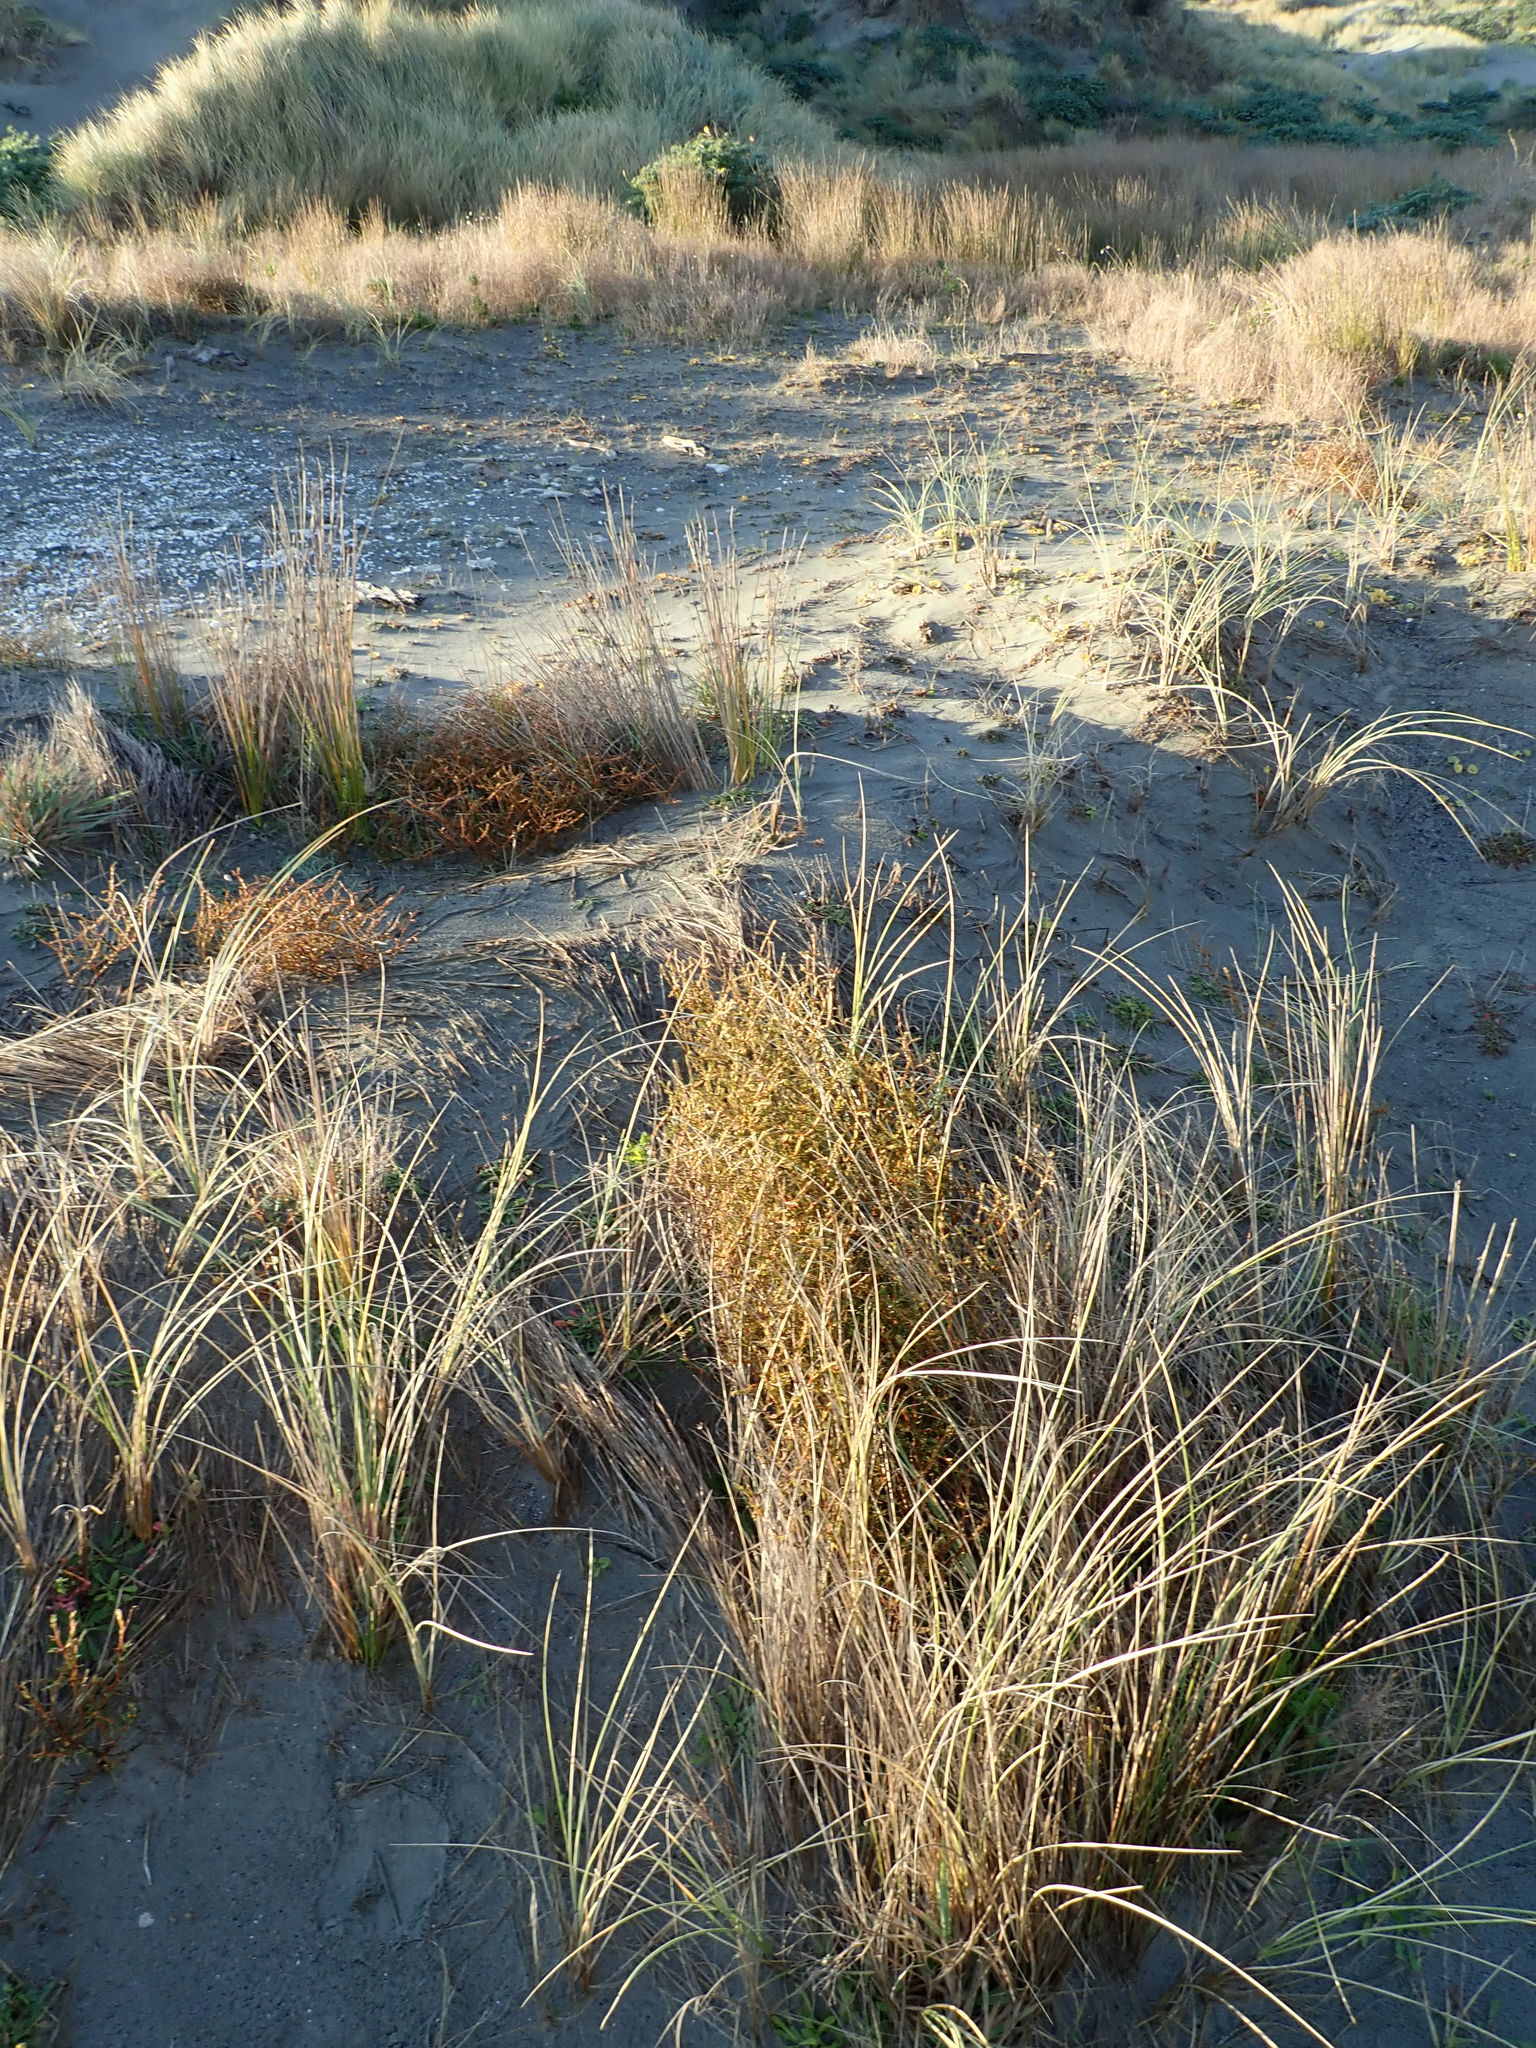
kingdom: Plantae
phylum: Tracheophyta
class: Magnoliopsida
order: Gentianales
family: Rubiaceae
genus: Coprosma
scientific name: Coprosma acerosa
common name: Sand coprosma
